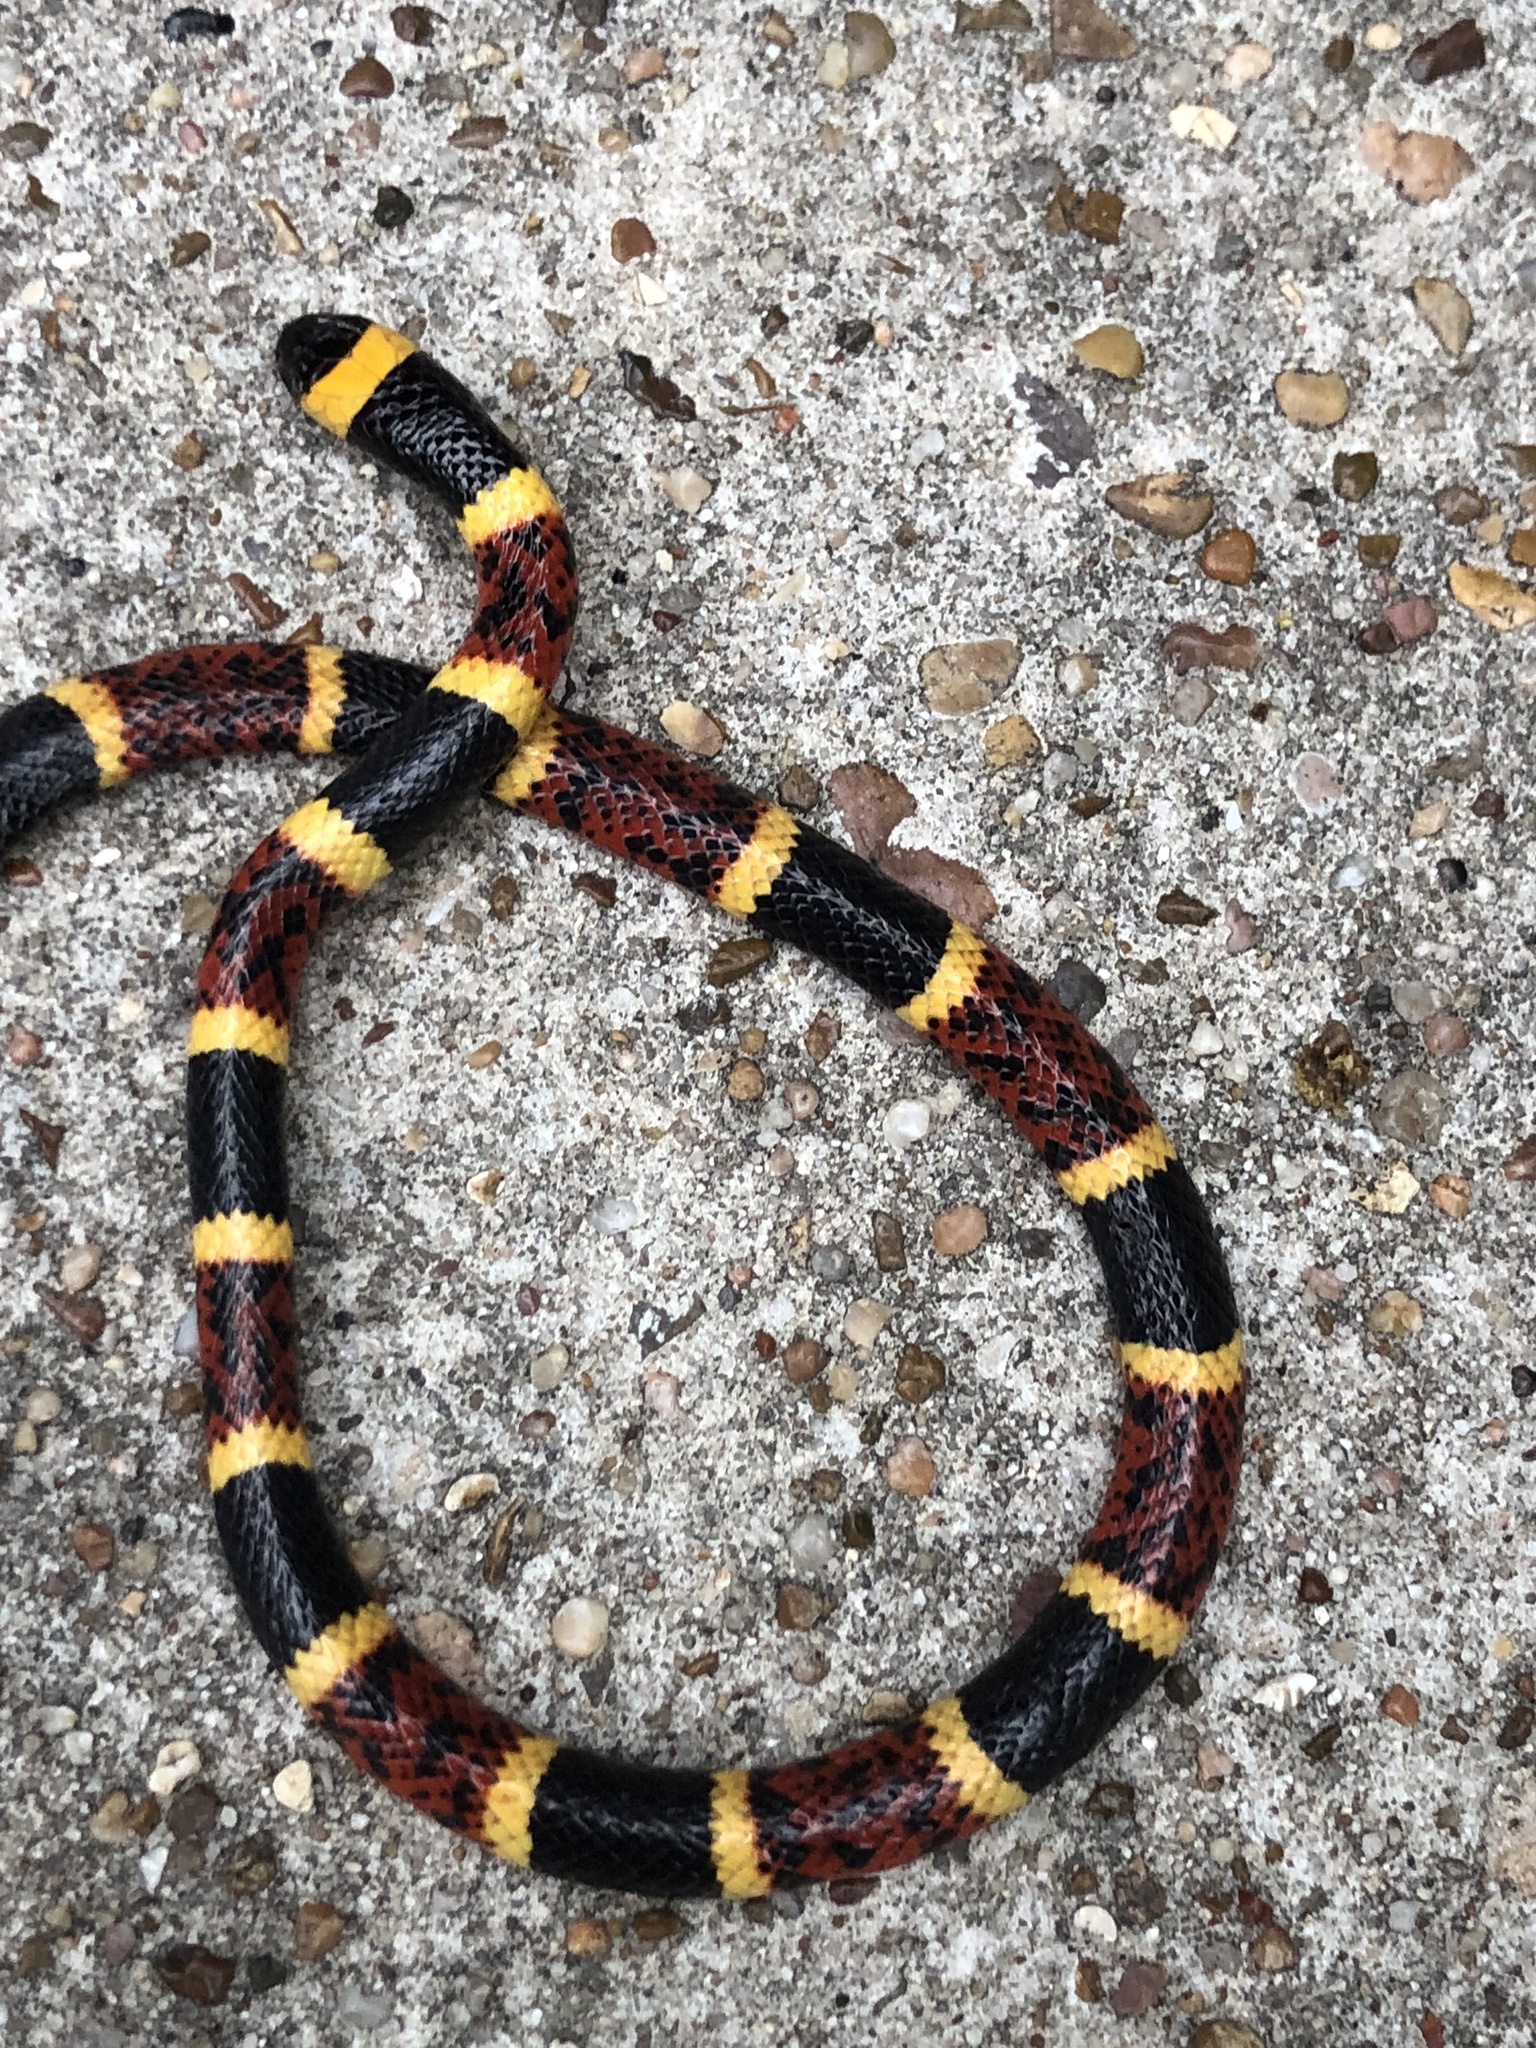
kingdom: Animalia
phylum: Chordata
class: Squamata
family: Elapidae
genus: Micrurus
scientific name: Micrurus tener
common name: Texas coral snake
